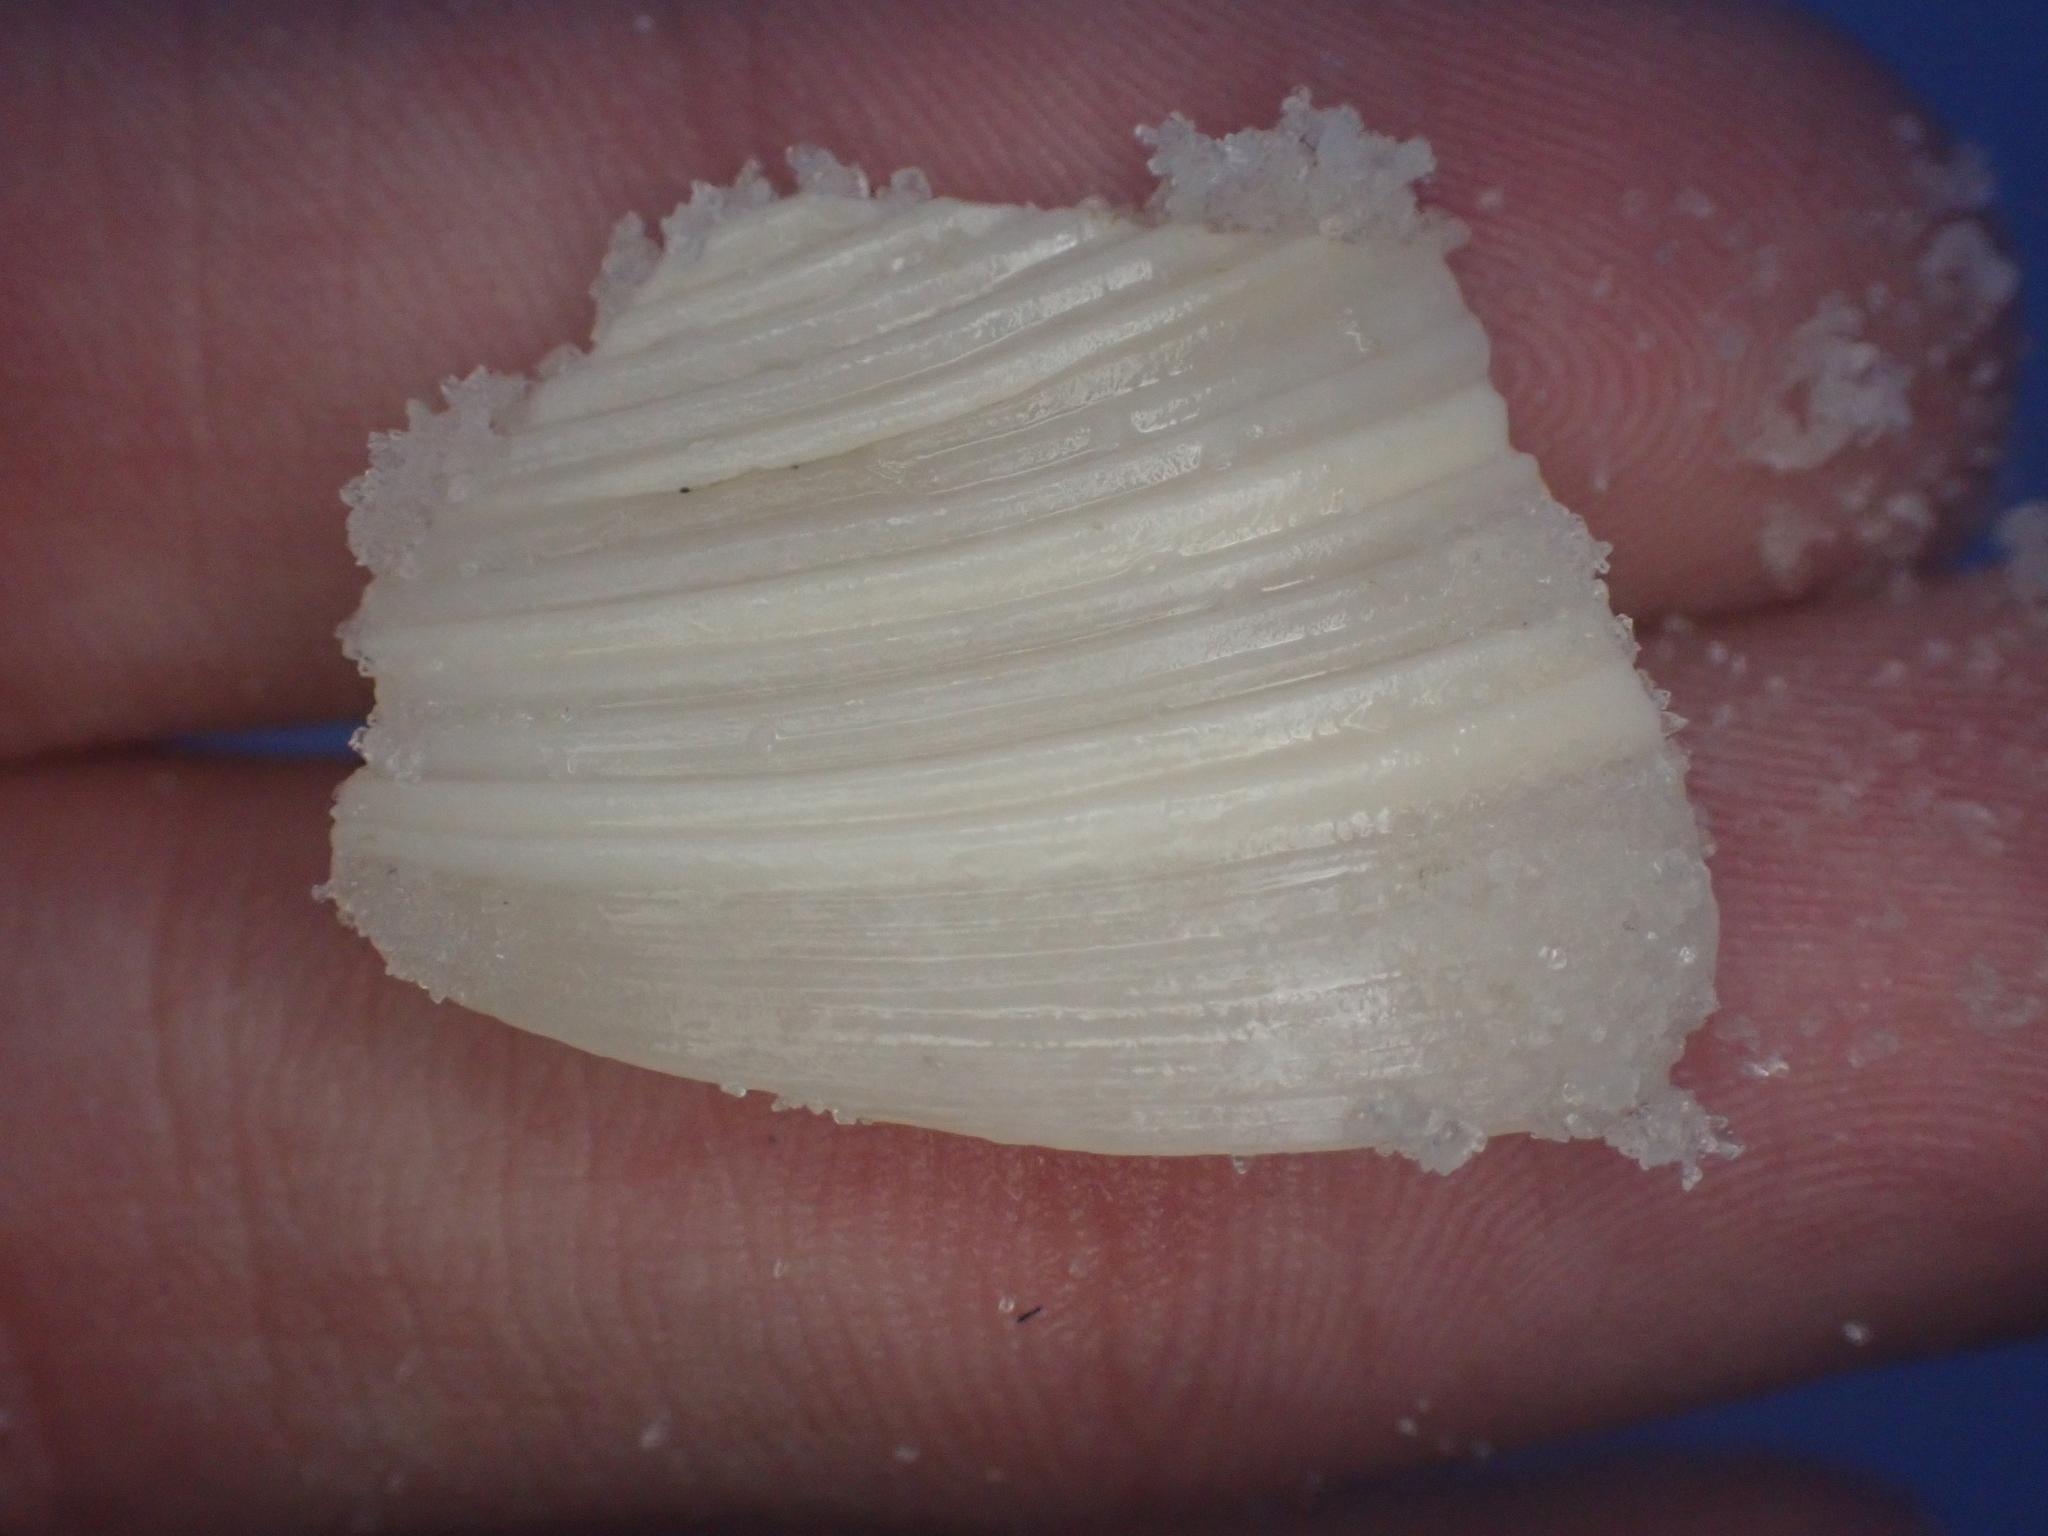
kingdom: Animalia
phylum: Mollusca
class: Bivalvia
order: Venerida
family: Veneridae
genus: Dosinia
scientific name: Dosinia concentrica
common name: Elegant dosinia
